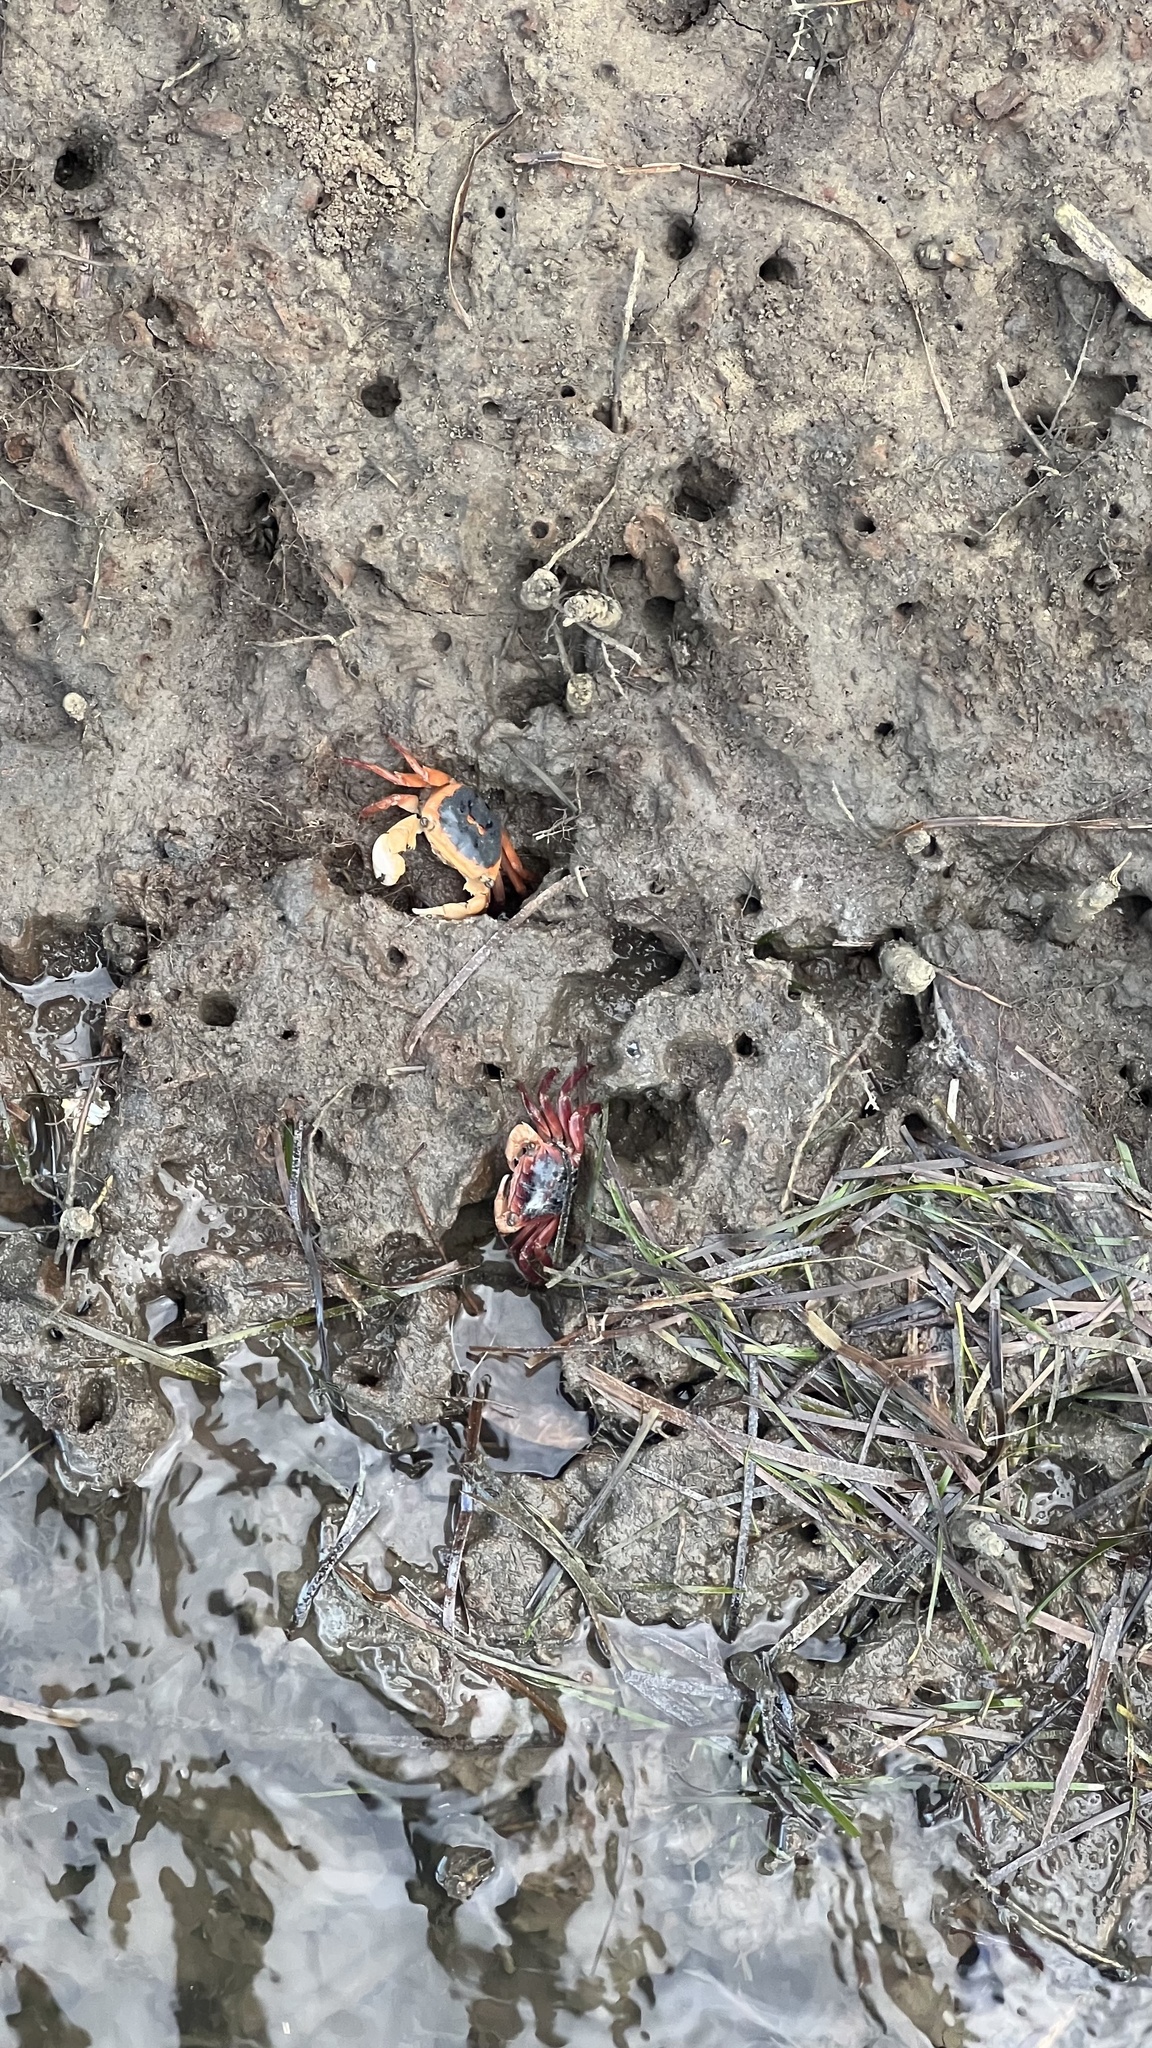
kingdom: Animalia
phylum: Arthropoda
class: Malacostraca
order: Decapoda
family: Grapsidae
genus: Metopograpsus
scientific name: Metopograpsus latifrons
